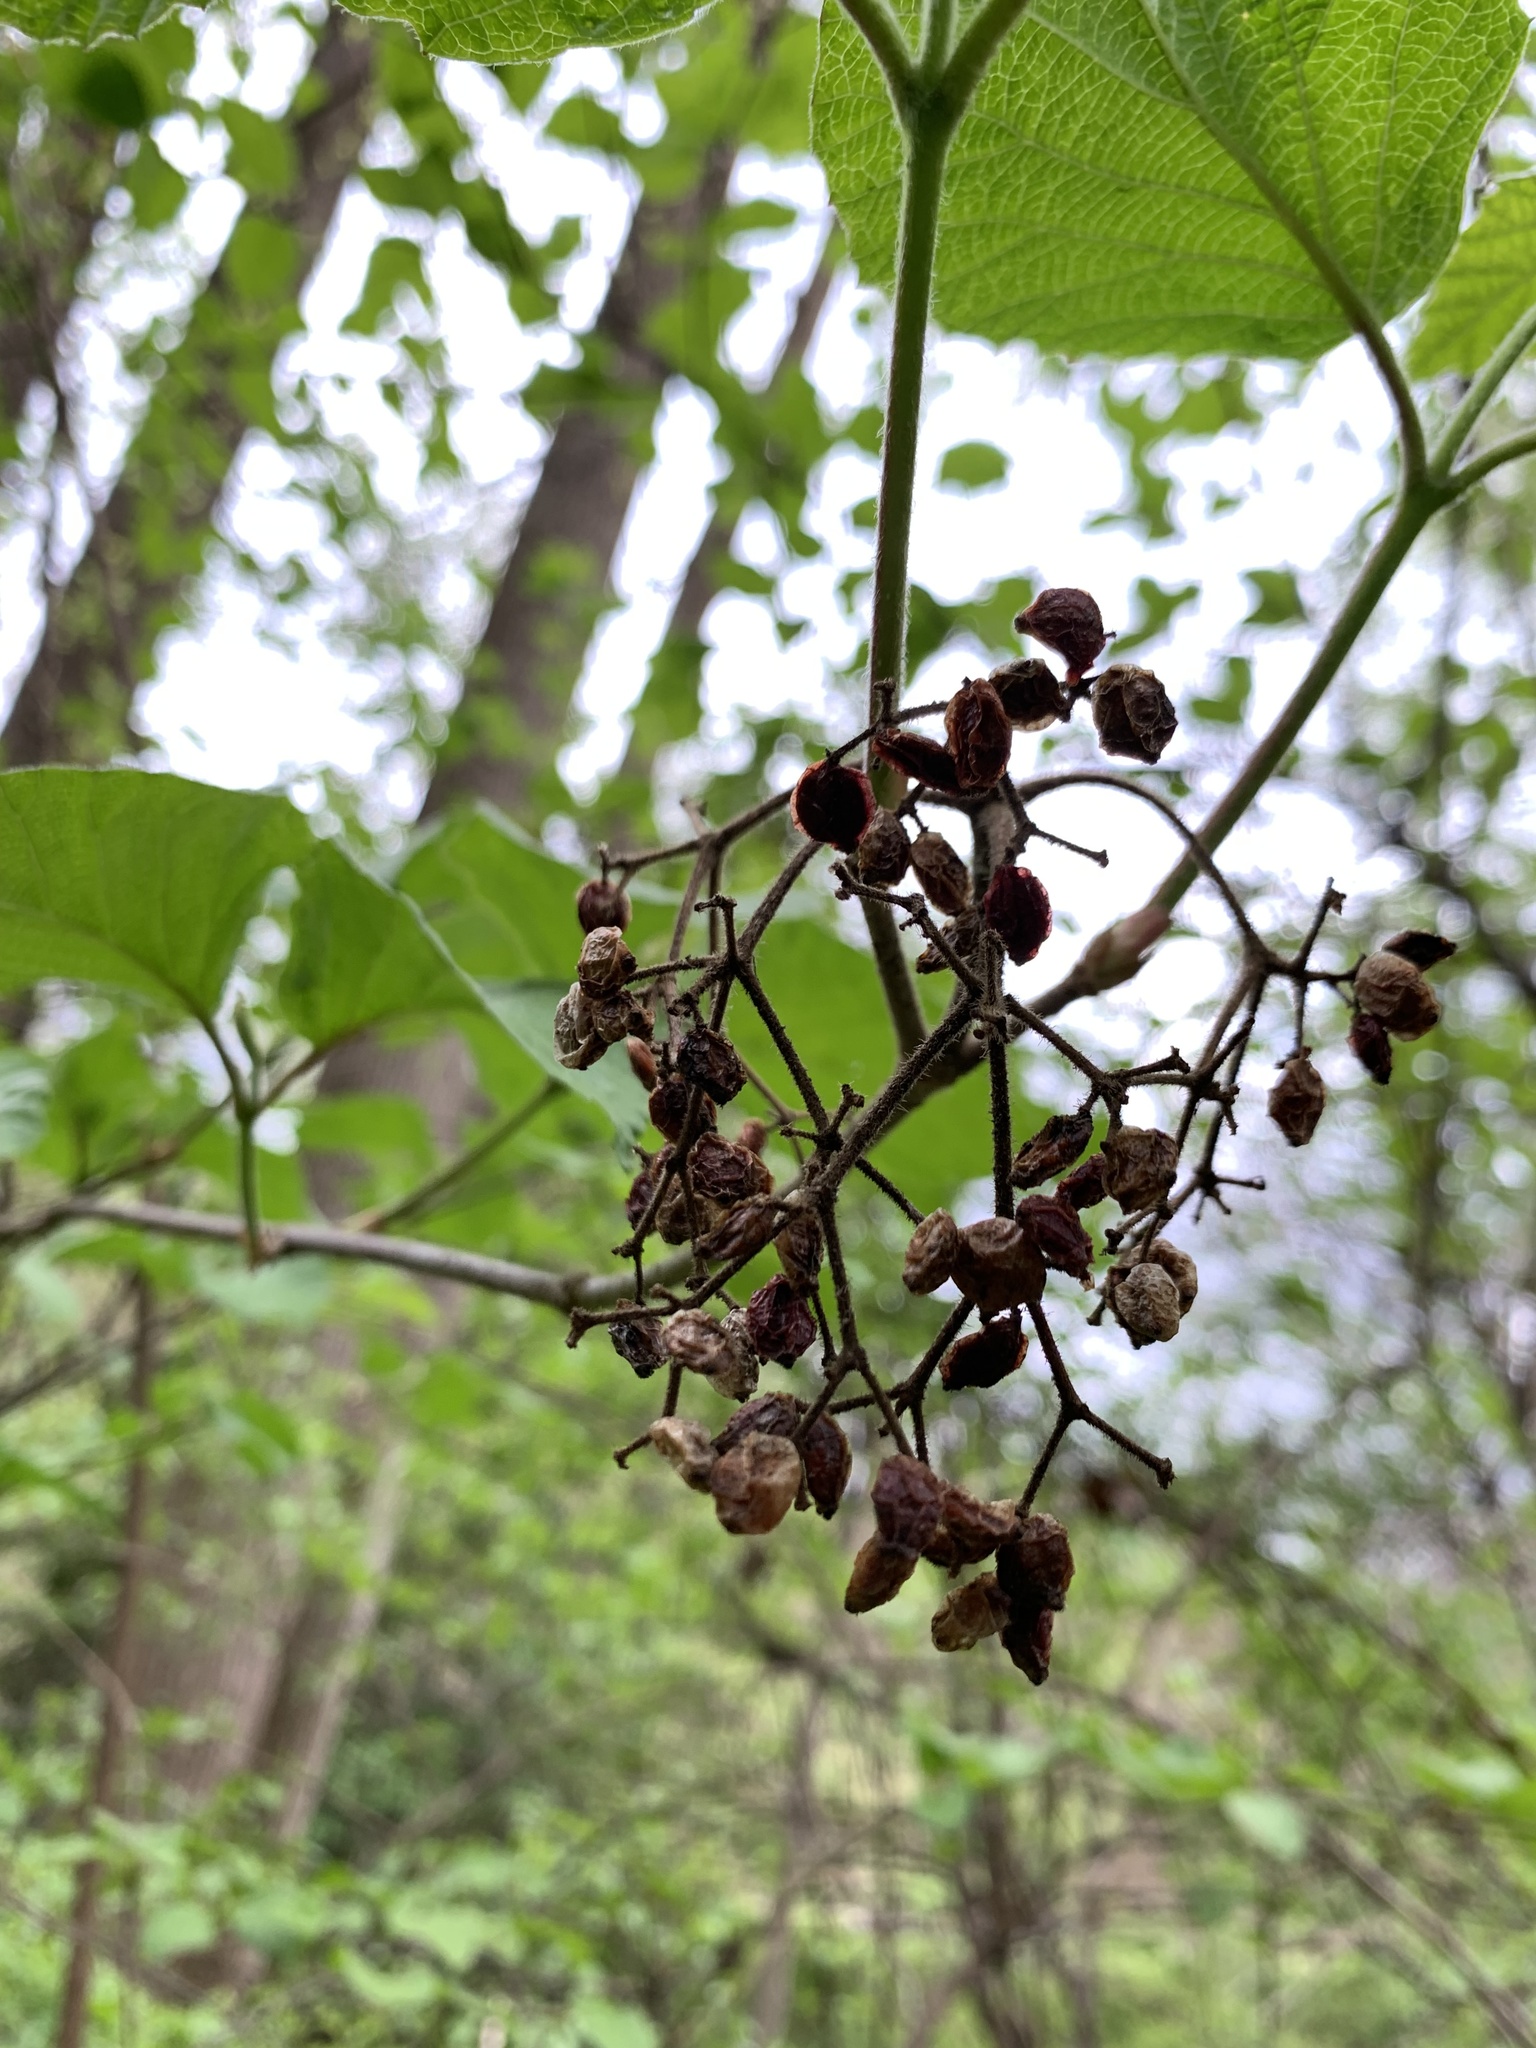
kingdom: Plantae
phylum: Tracheophyta
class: Magnoliopsida
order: Dipsacales
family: Viburnaceae
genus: Viburnum
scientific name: Viburnum dilatatum
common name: Linden arrowwood
